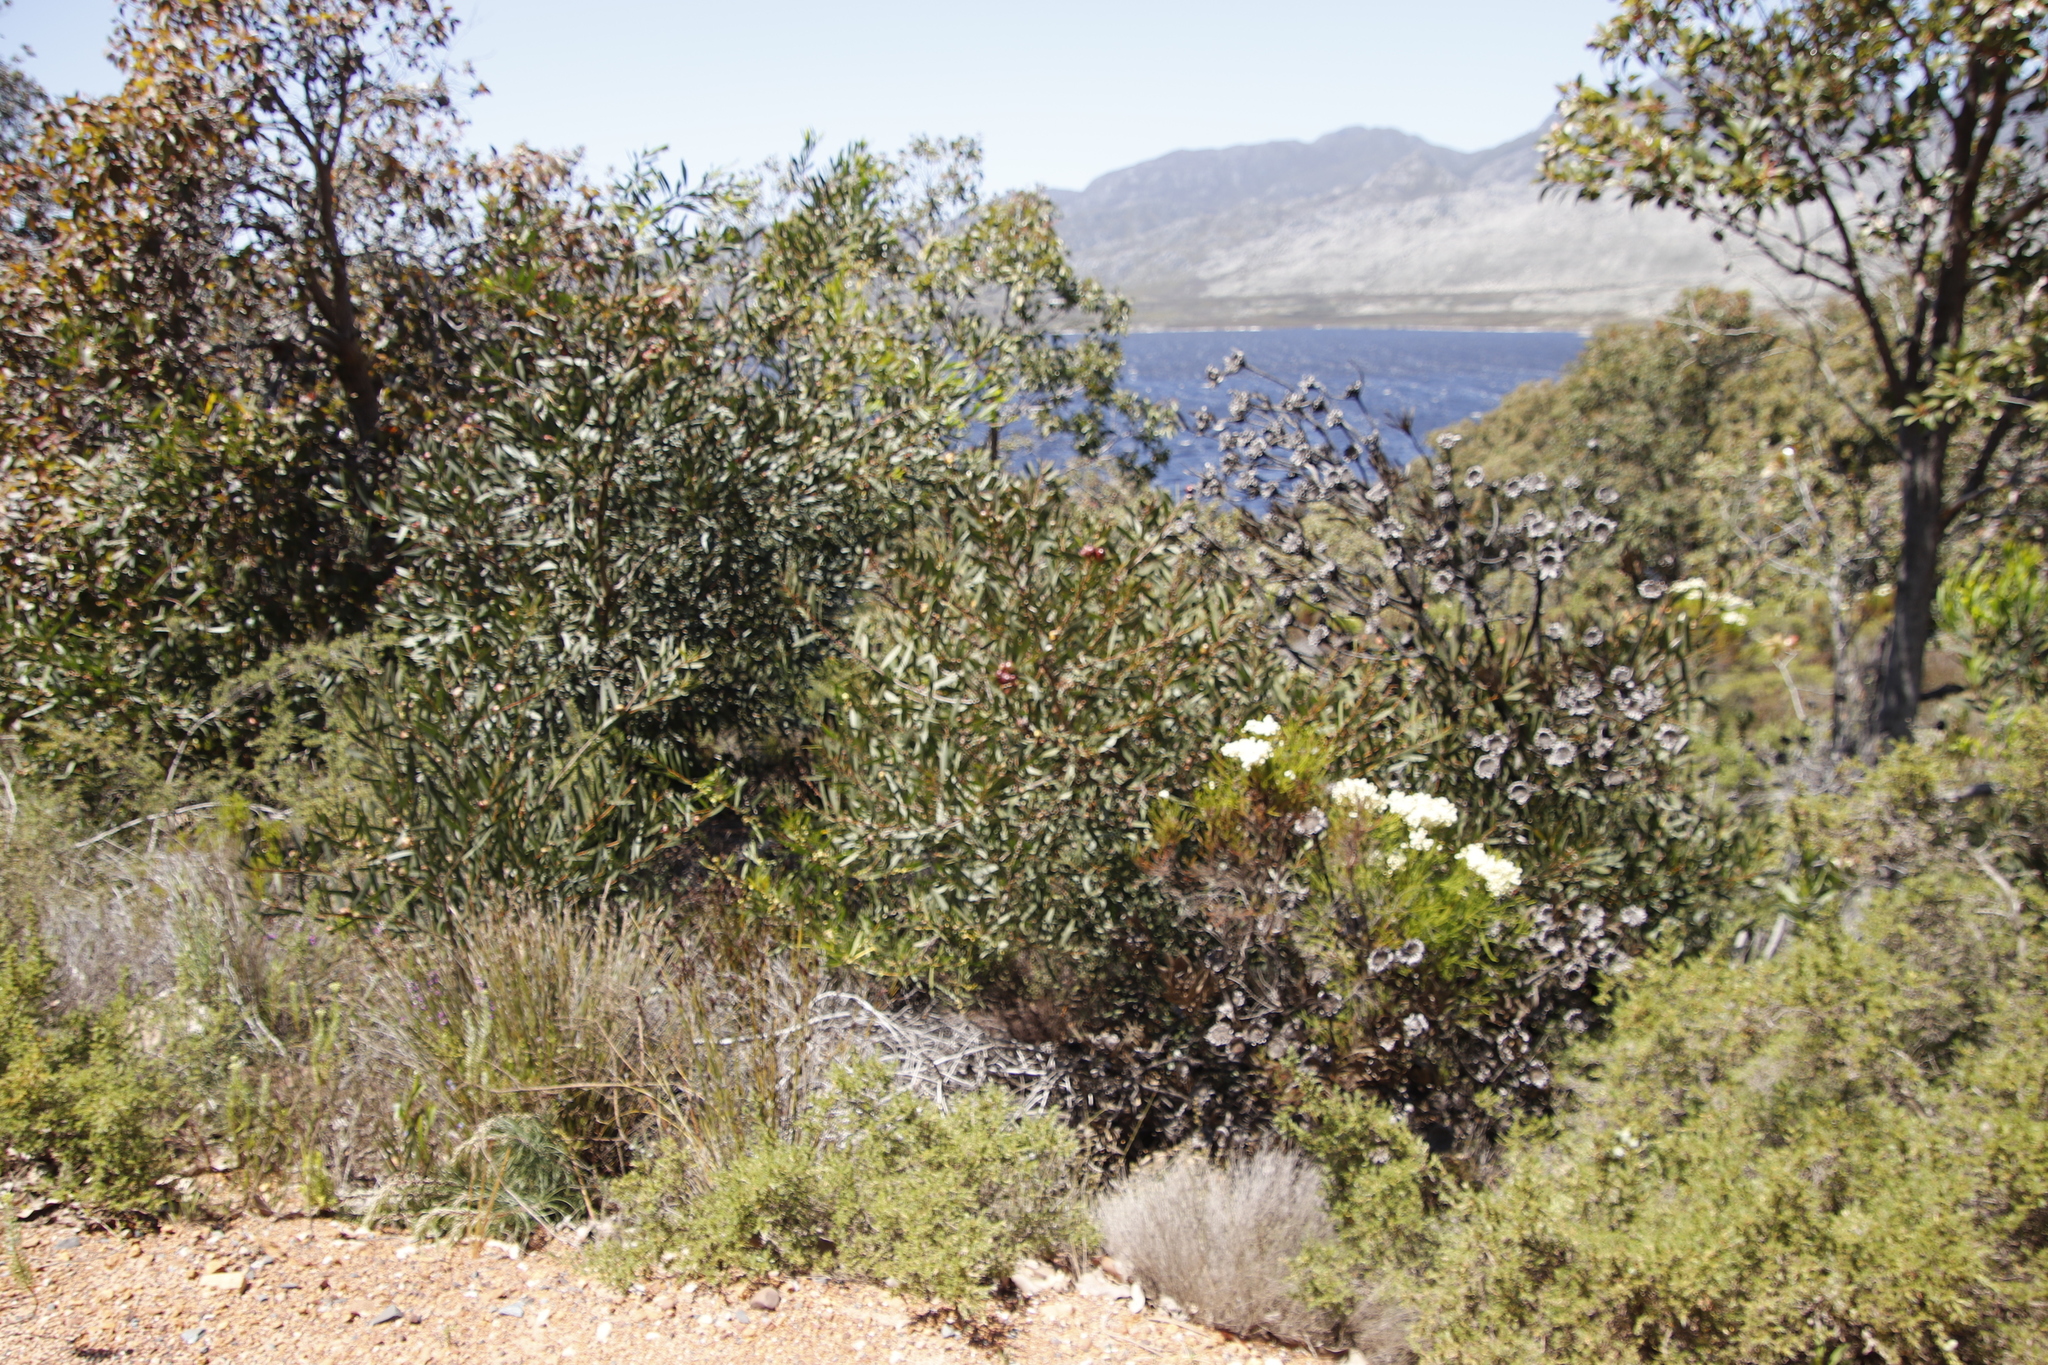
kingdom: Plantae
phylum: Tracheophyta
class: Magnoliopsida
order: Fabales
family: Fabaceae
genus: Acacia
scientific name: Acacia longifolia
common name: Sydney golden wattle
